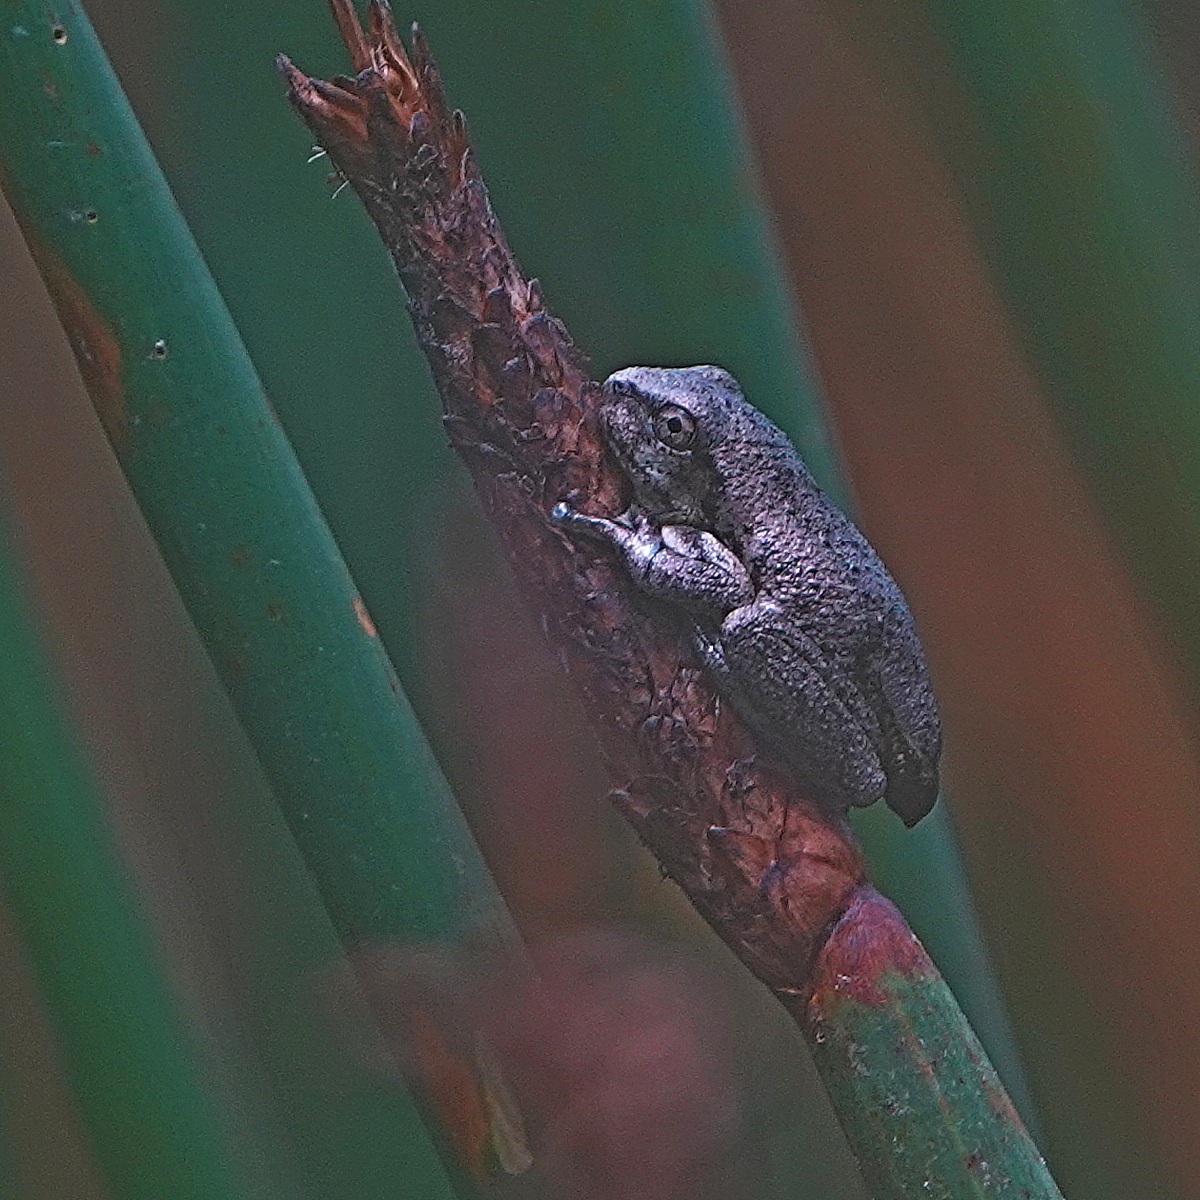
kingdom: Animalia
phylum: Chordata
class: Amphibia
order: Anura
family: Pelodryadidae
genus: Litoria
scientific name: Litoria peronii
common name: Emerald spotted treefrog
